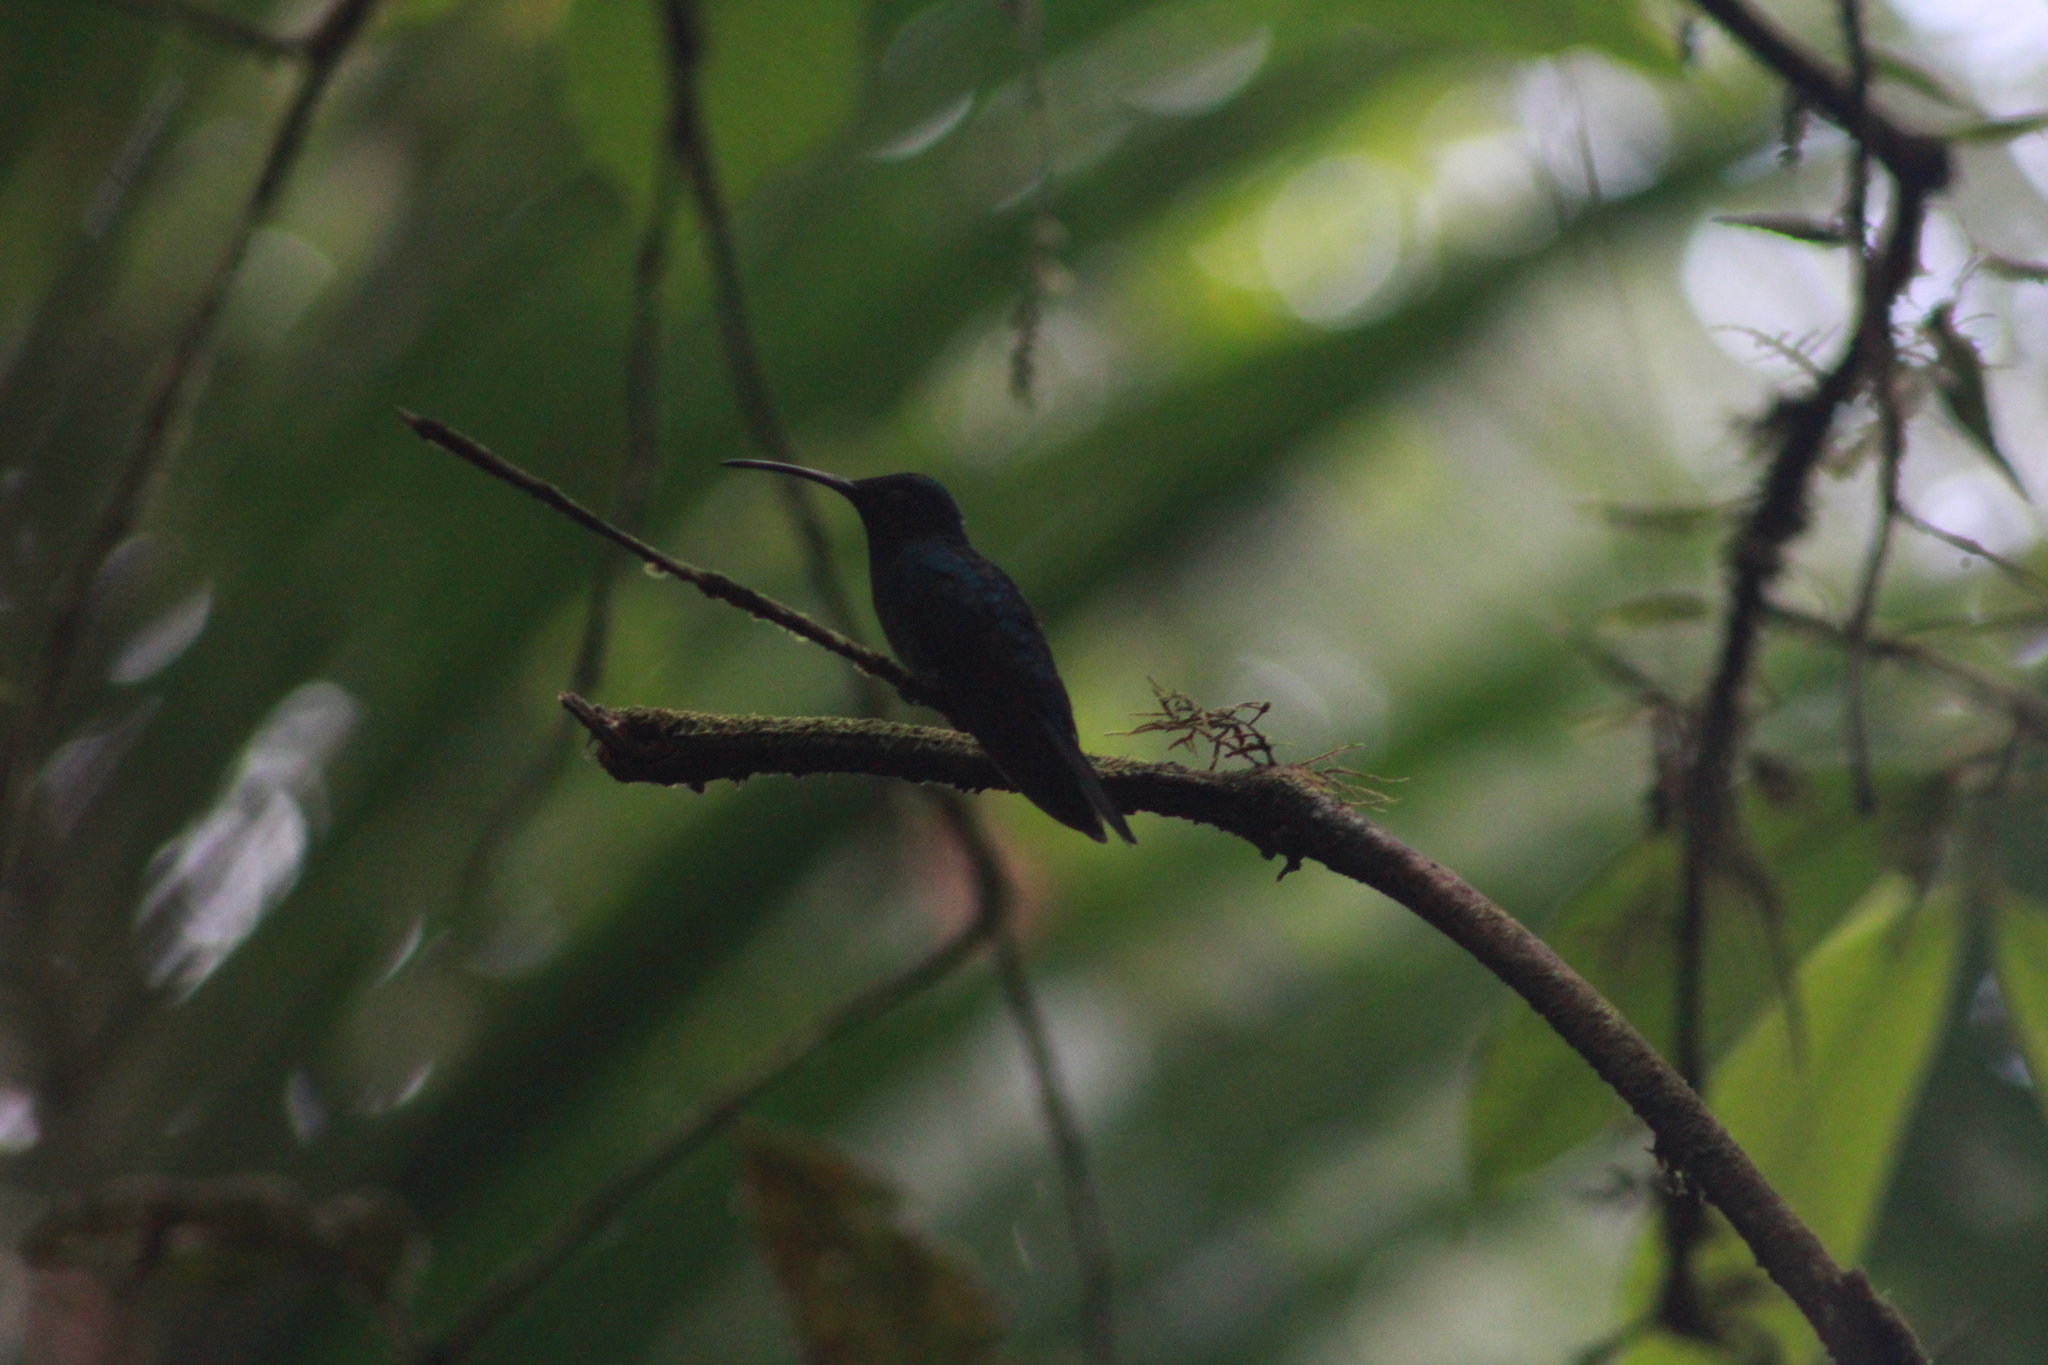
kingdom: Animalia
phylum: Chordata
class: Aves
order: Apodiformes
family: Trochilidae
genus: Campylopterus
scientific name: Campylopterus ensipennis
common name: White-tailed sabrewing
